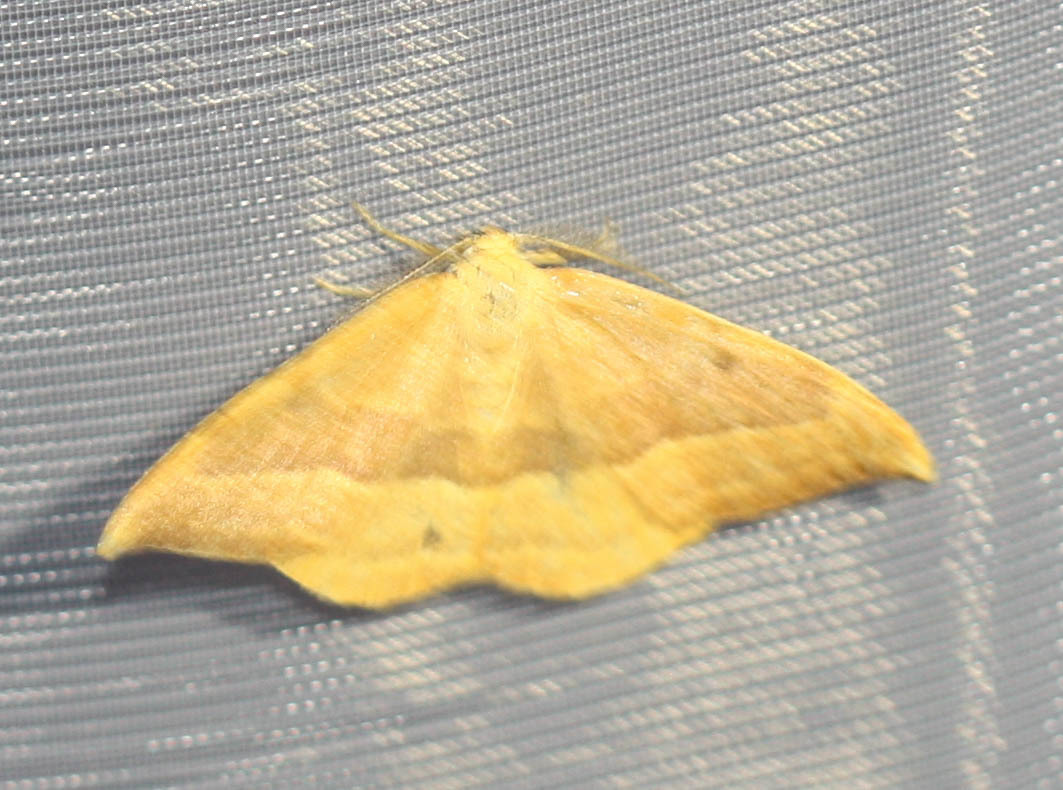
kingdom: Animalia
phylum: Arthropoda
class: Insecta
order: Lepidoptera
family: Drepanidae
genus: Watsonalla
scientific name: Watsonalla cultraria
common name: Barred hook-tip
